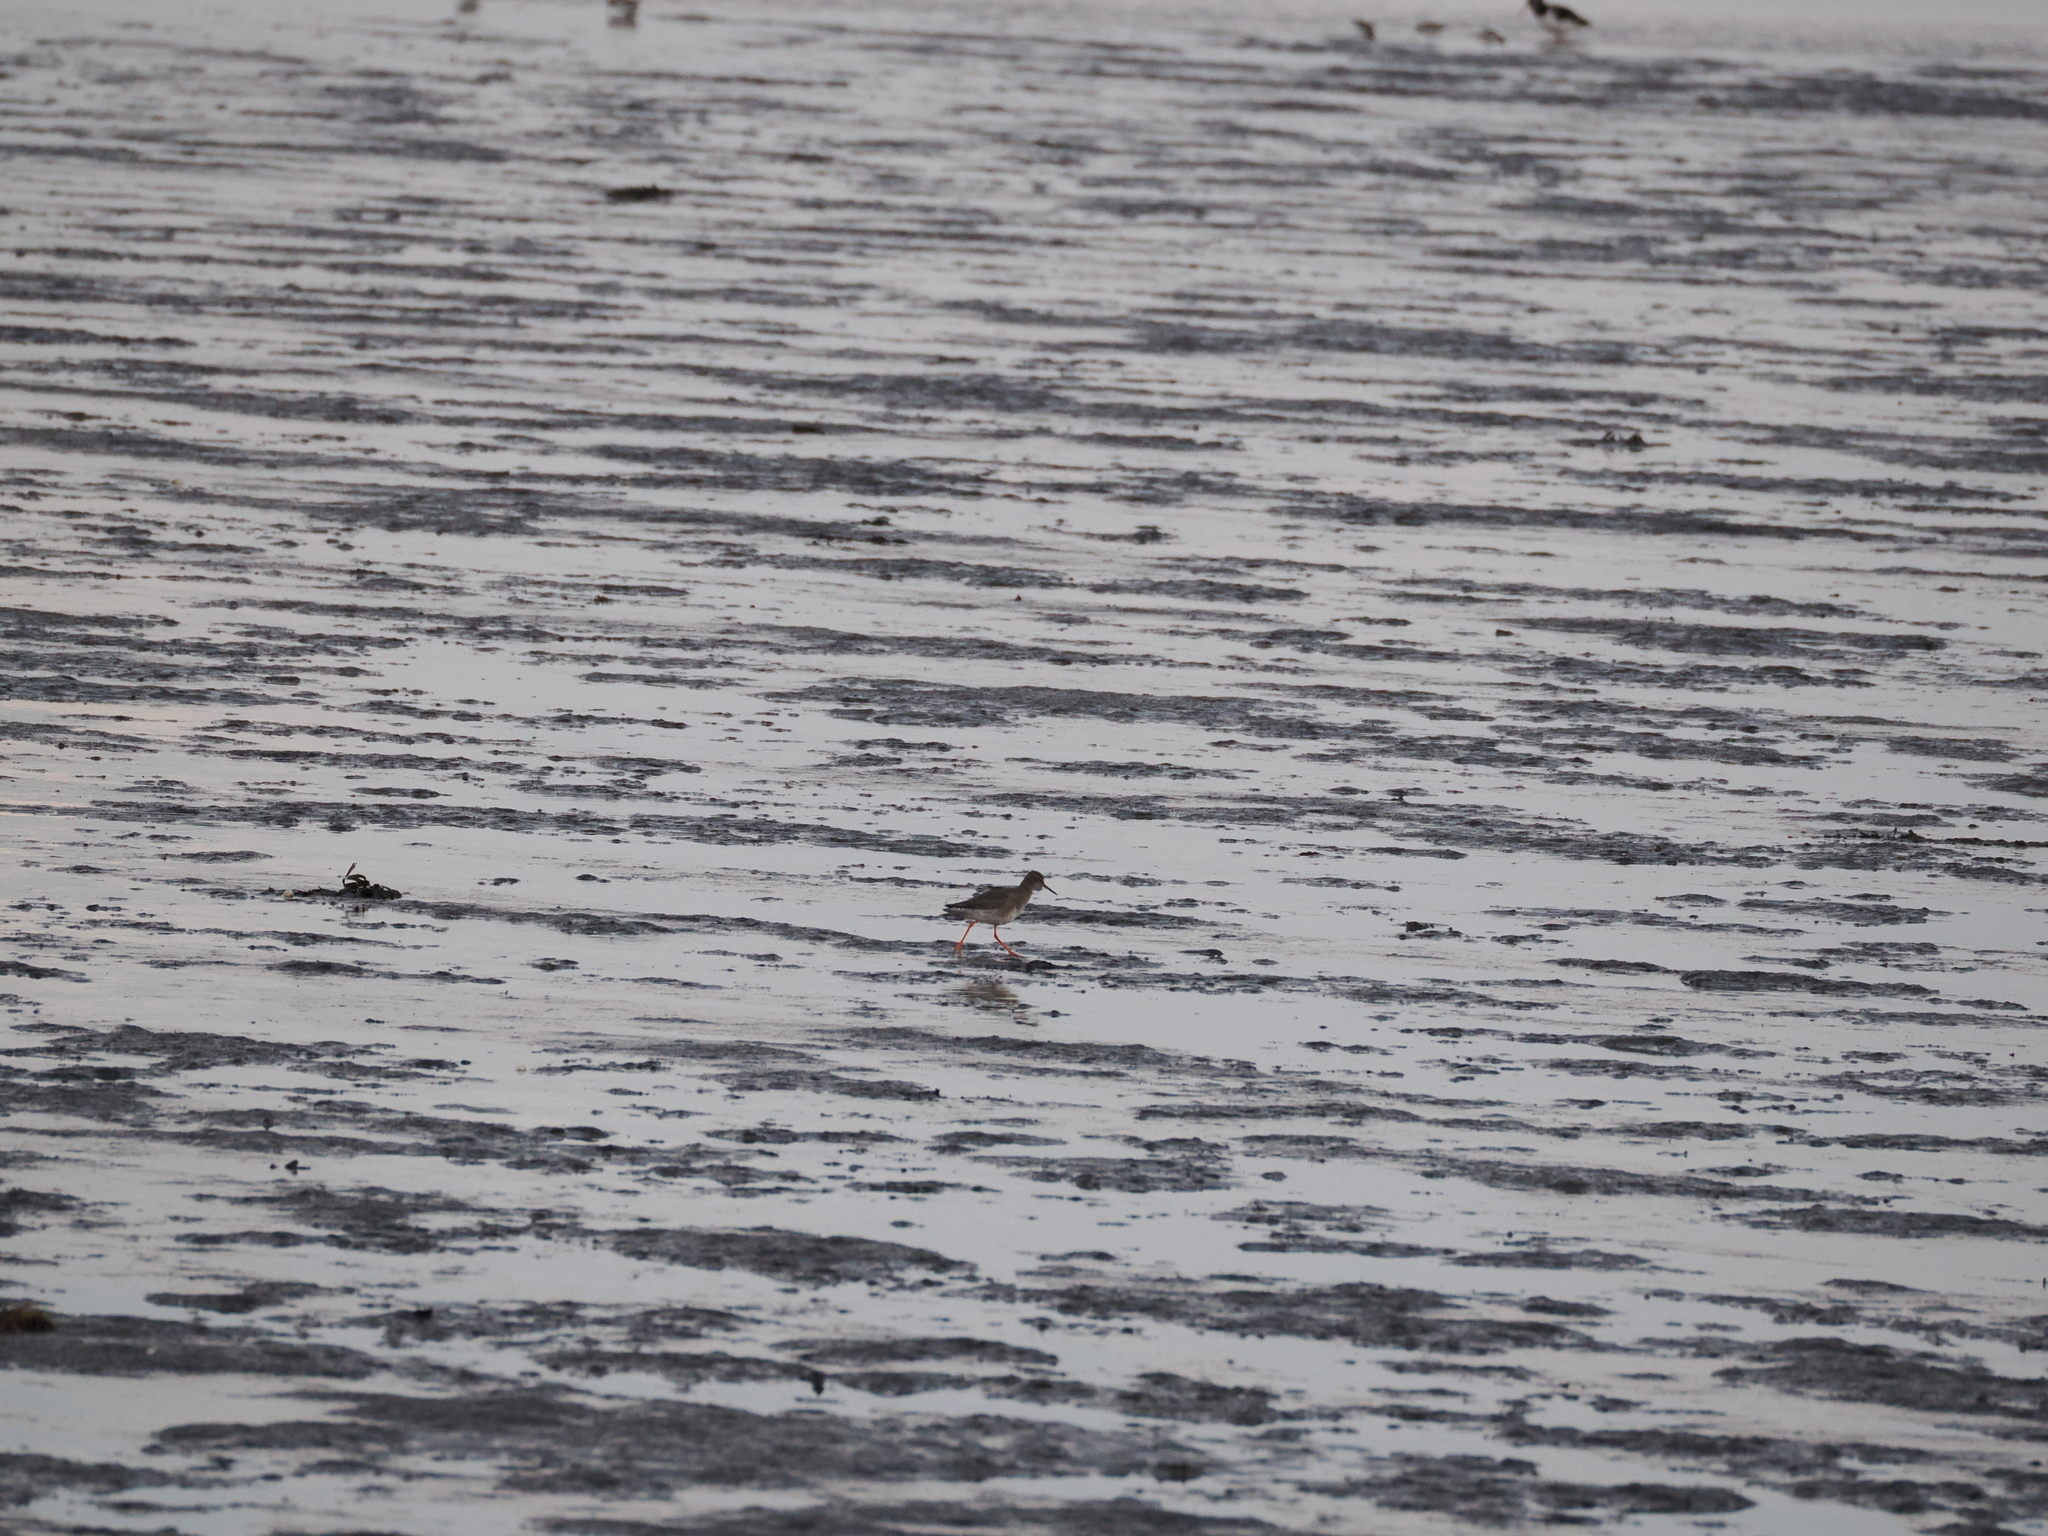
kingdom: Animalia
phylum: Chordata
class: Aves
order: Charadriiformes
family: Scolopacidae
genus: Tringa
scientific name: Tringa totanus
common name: Common redshank
